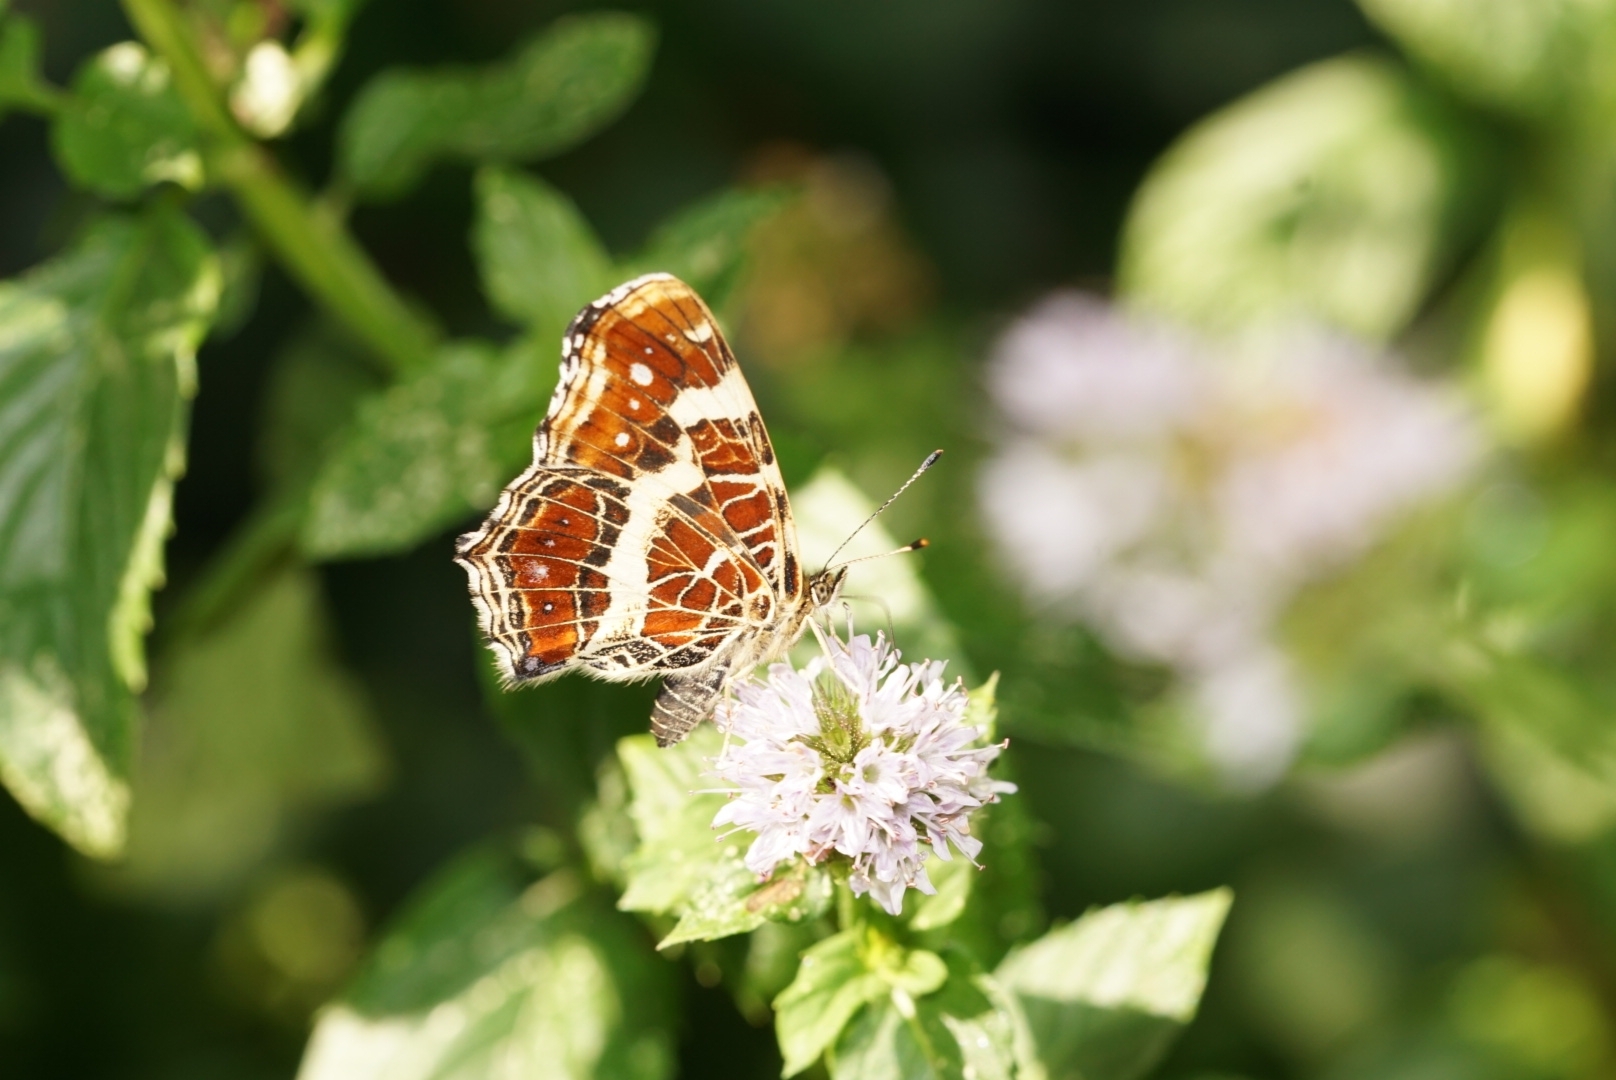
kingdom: Animalia
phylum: Arthropoda
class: Insecta
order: Lepidoptera
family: Nymphalidae
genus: Araschnia
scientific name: Araschnia levana
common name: Map butterfly
